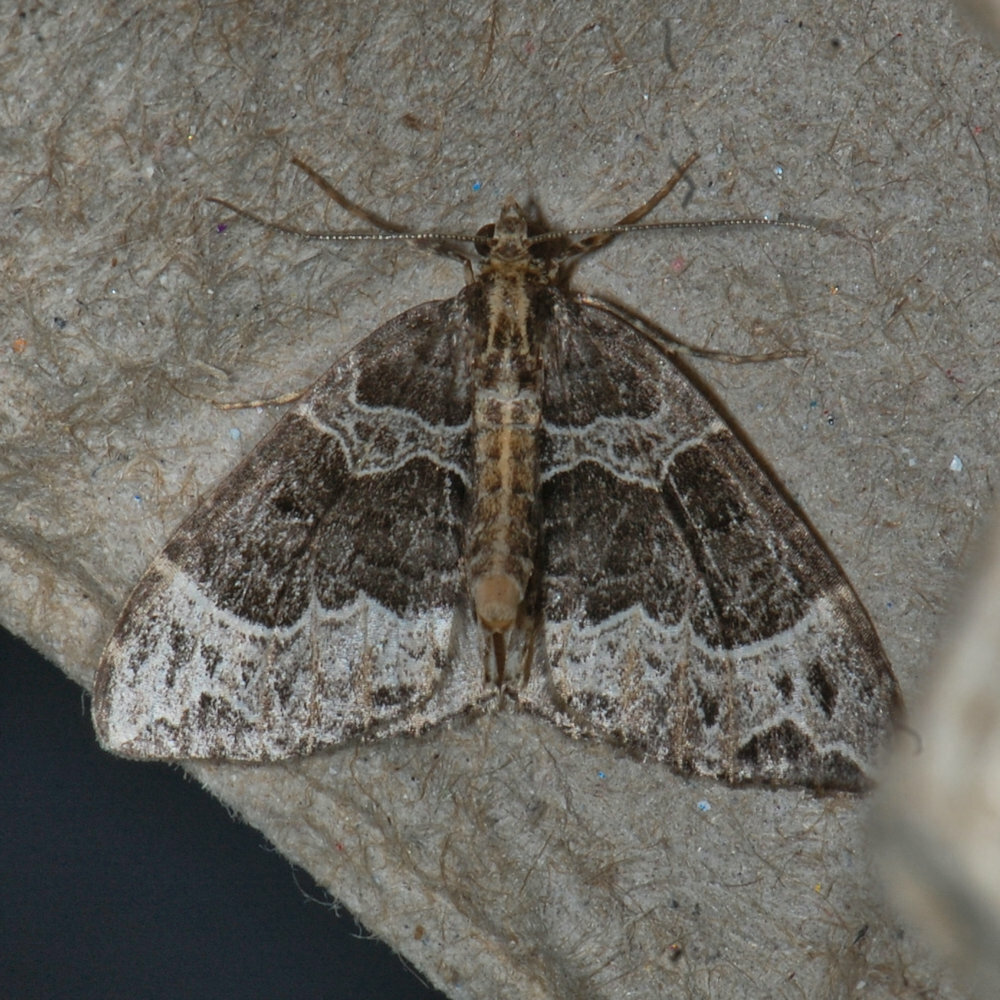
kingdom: Animalia
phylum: Arthropoda
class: Insecta
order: Lepidoptera
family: Geometridae
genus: Ecliptopera
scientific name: Ecliptopera silaceata
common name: Small phoenix
